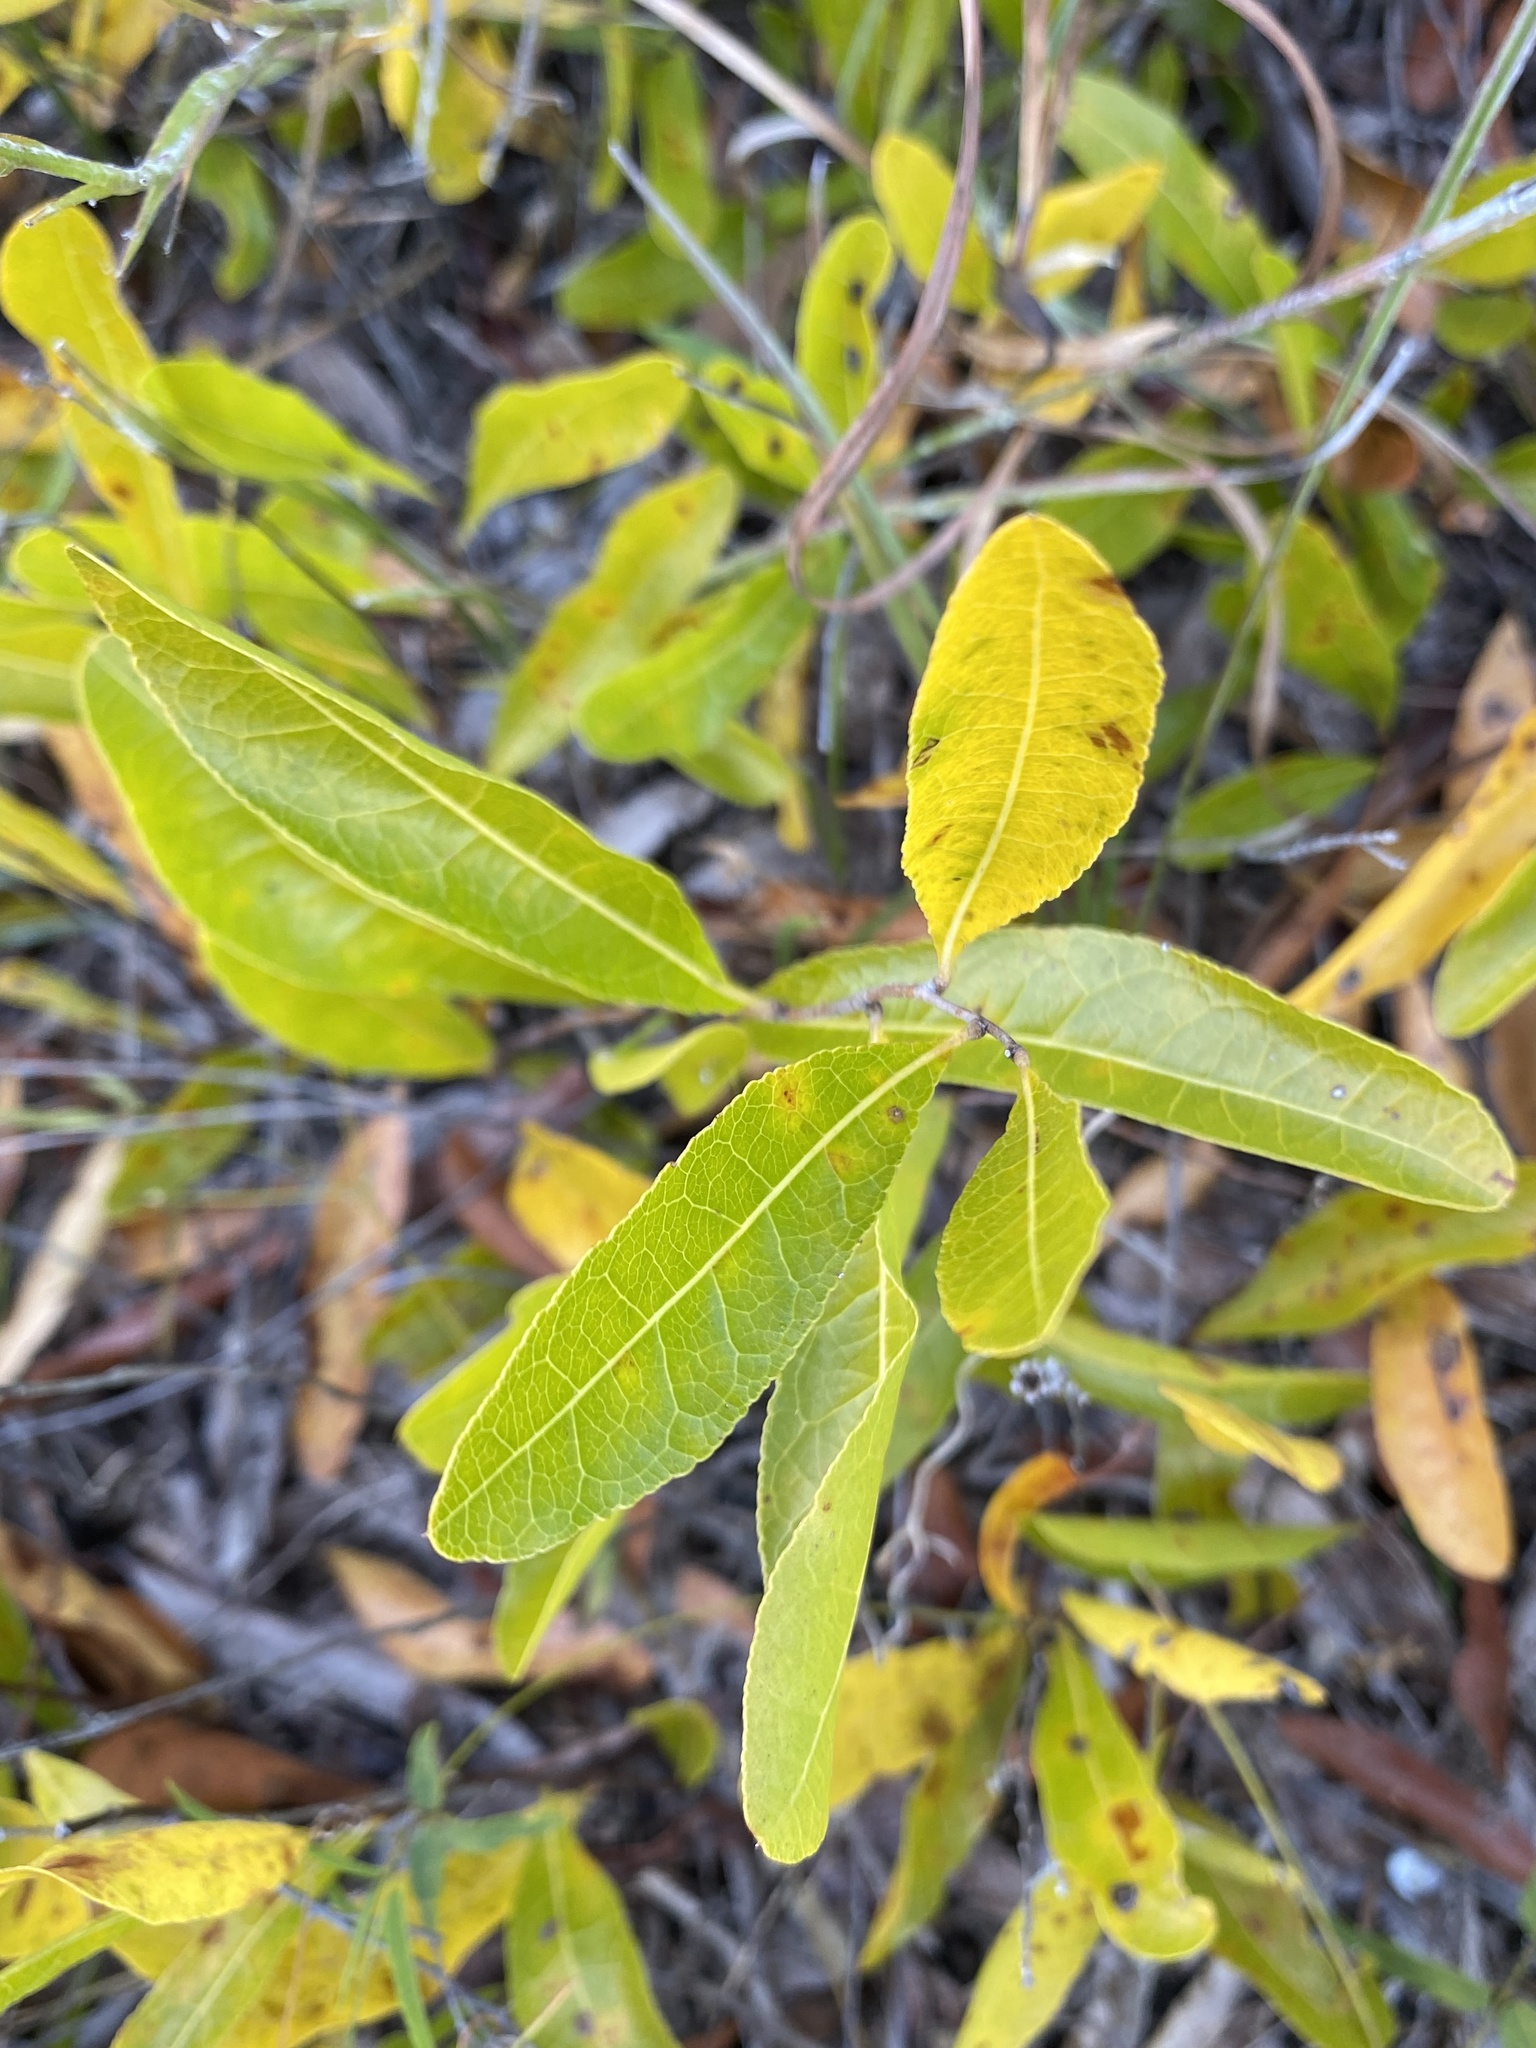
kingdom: Plantae
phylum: Tracheophyta
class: Magnoliopsida
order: Malpighiales
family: Chrysobalanaceae
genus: Geobalanus
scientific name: Geobalanus oblongifolius
